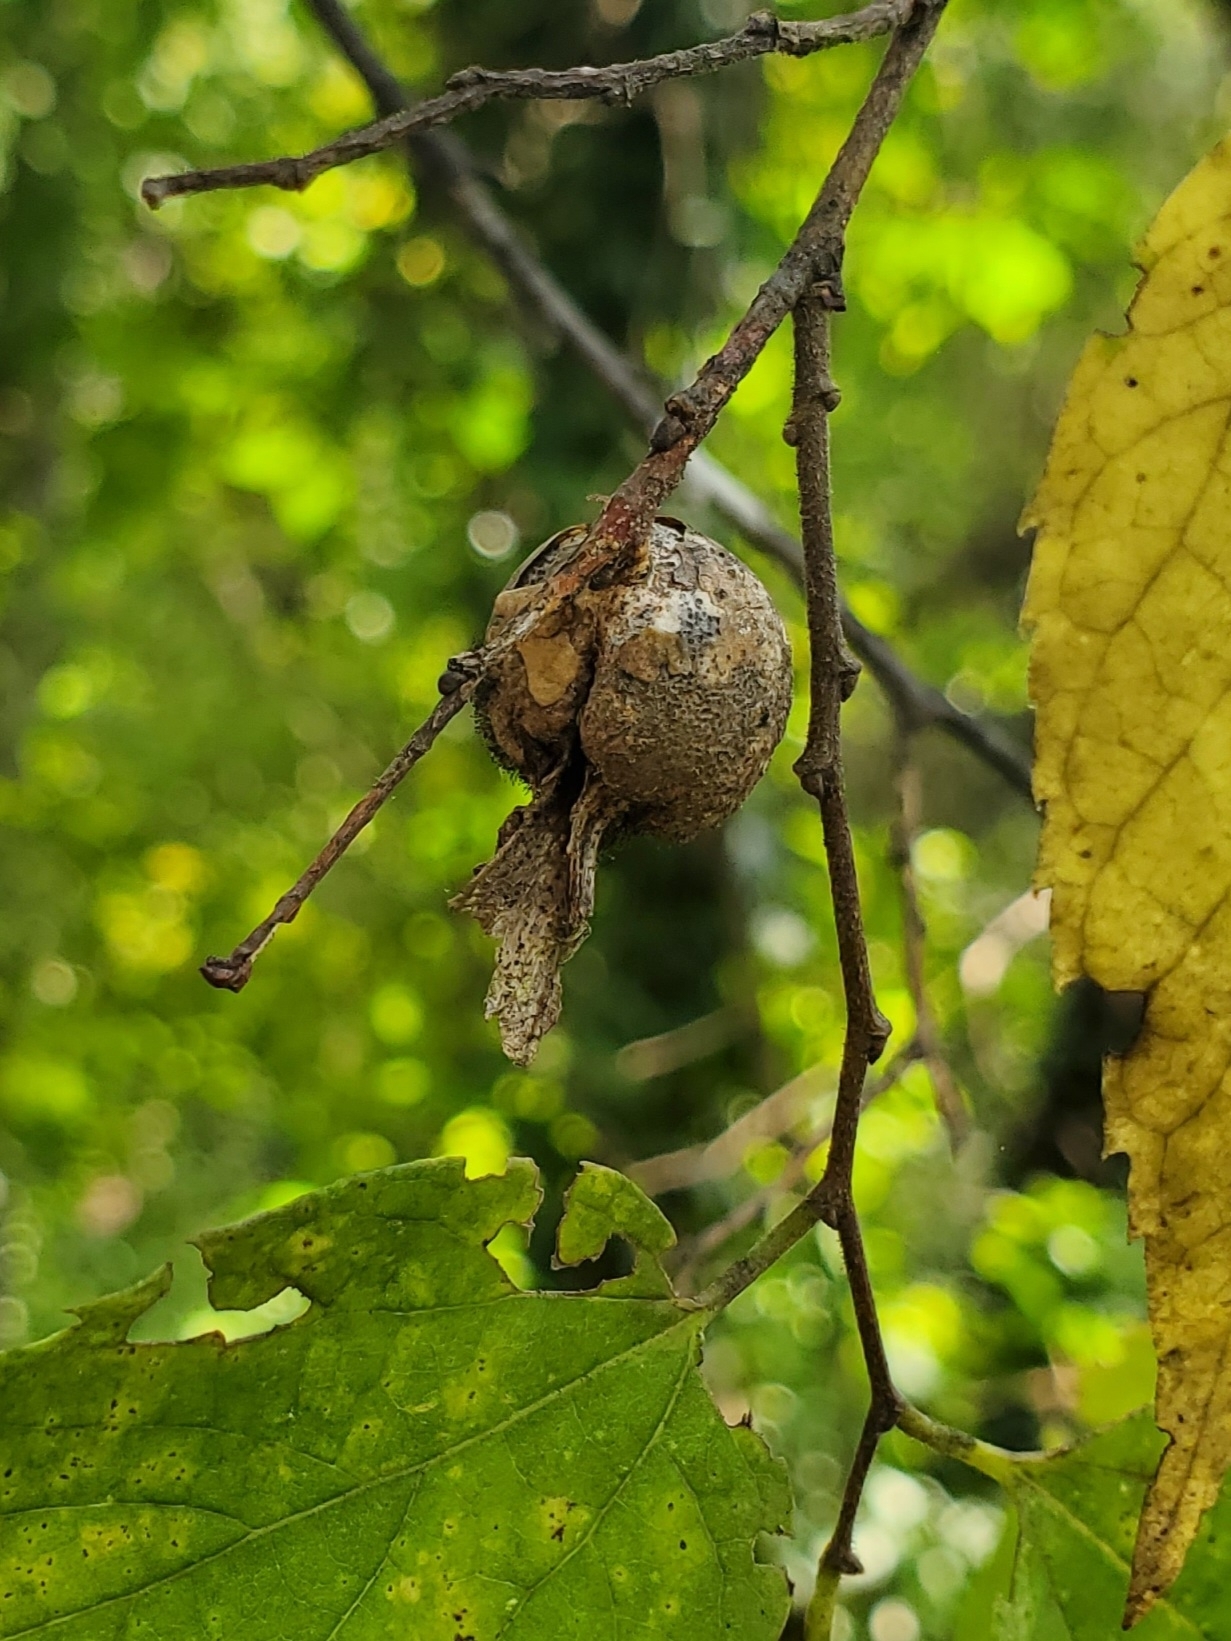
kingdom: Animalia
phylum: Arthropoda
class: Insecta
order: Hemiptera
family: Aphalaridae
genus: Pachypsylla
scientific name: Pachypsylla venusta
